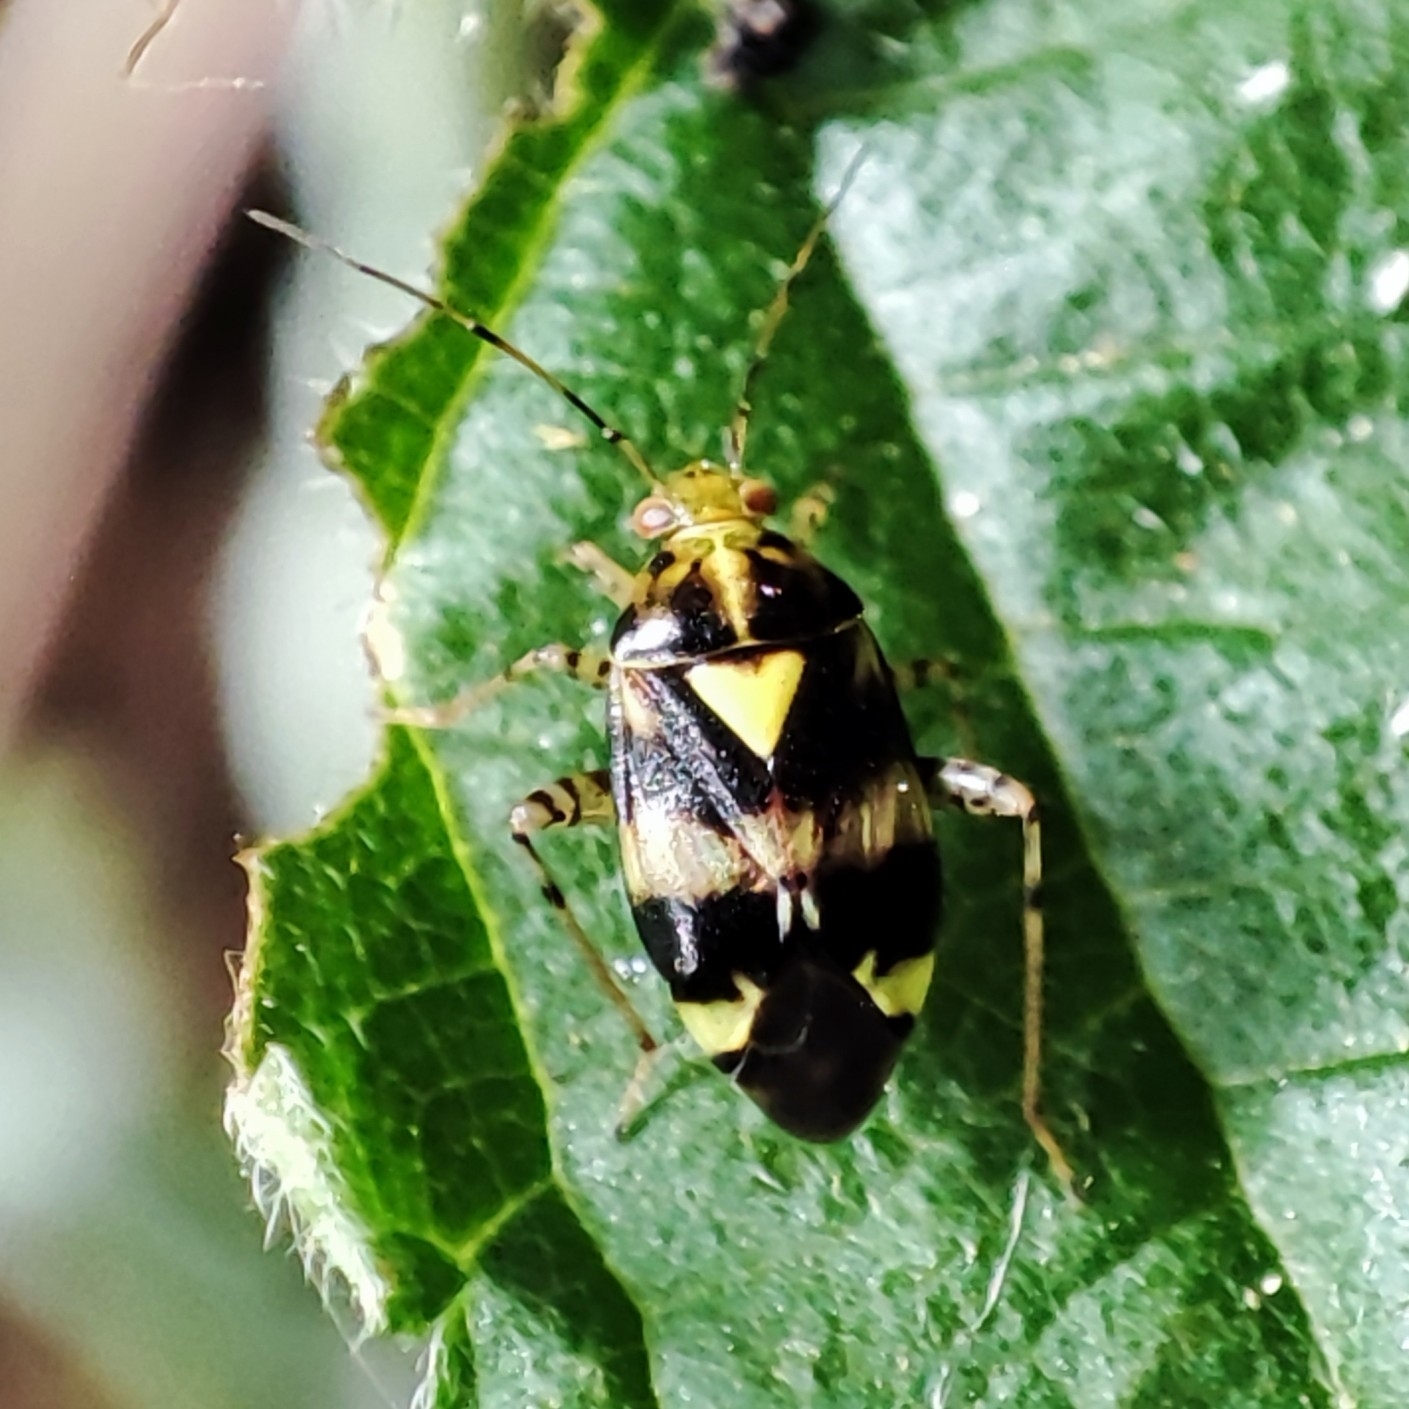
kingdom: Animalia
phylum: Arthropoda
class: Insecta
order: Hemiptera
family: Miridae
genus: Liocoris
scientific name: Liocoris tripustulatus
